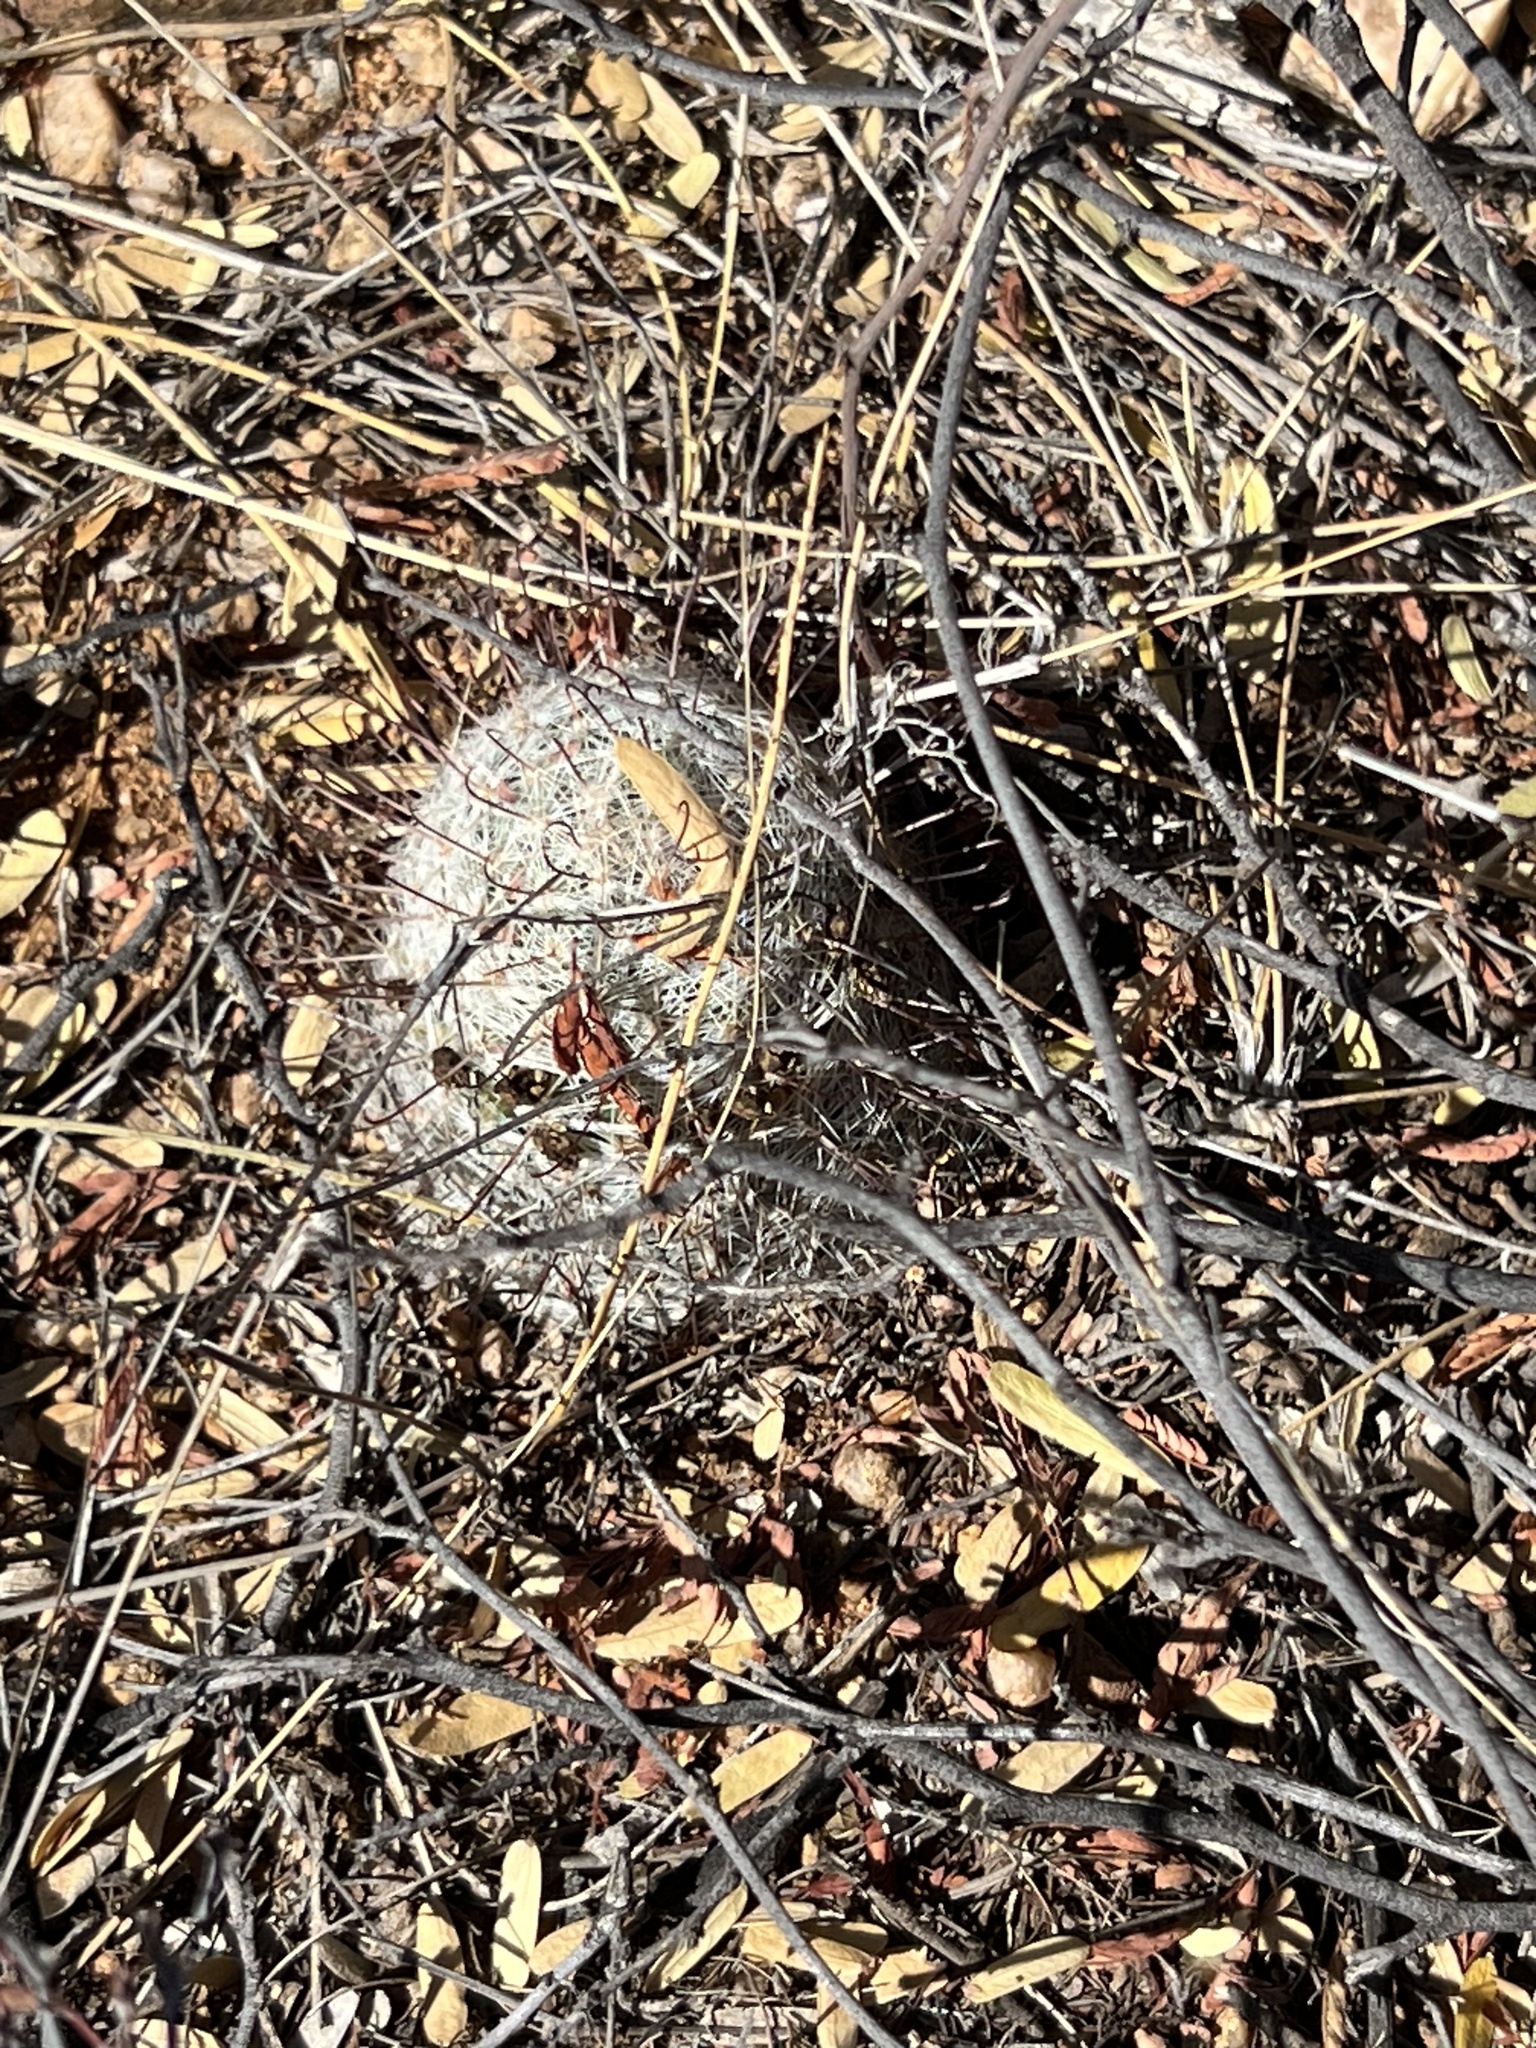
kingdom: Plantae
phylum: Tracheophyta
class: Magnoliopsida
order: Caryophyllales
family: Cactaceae
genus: Cochemiea
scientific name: Cochemiea grahamii
